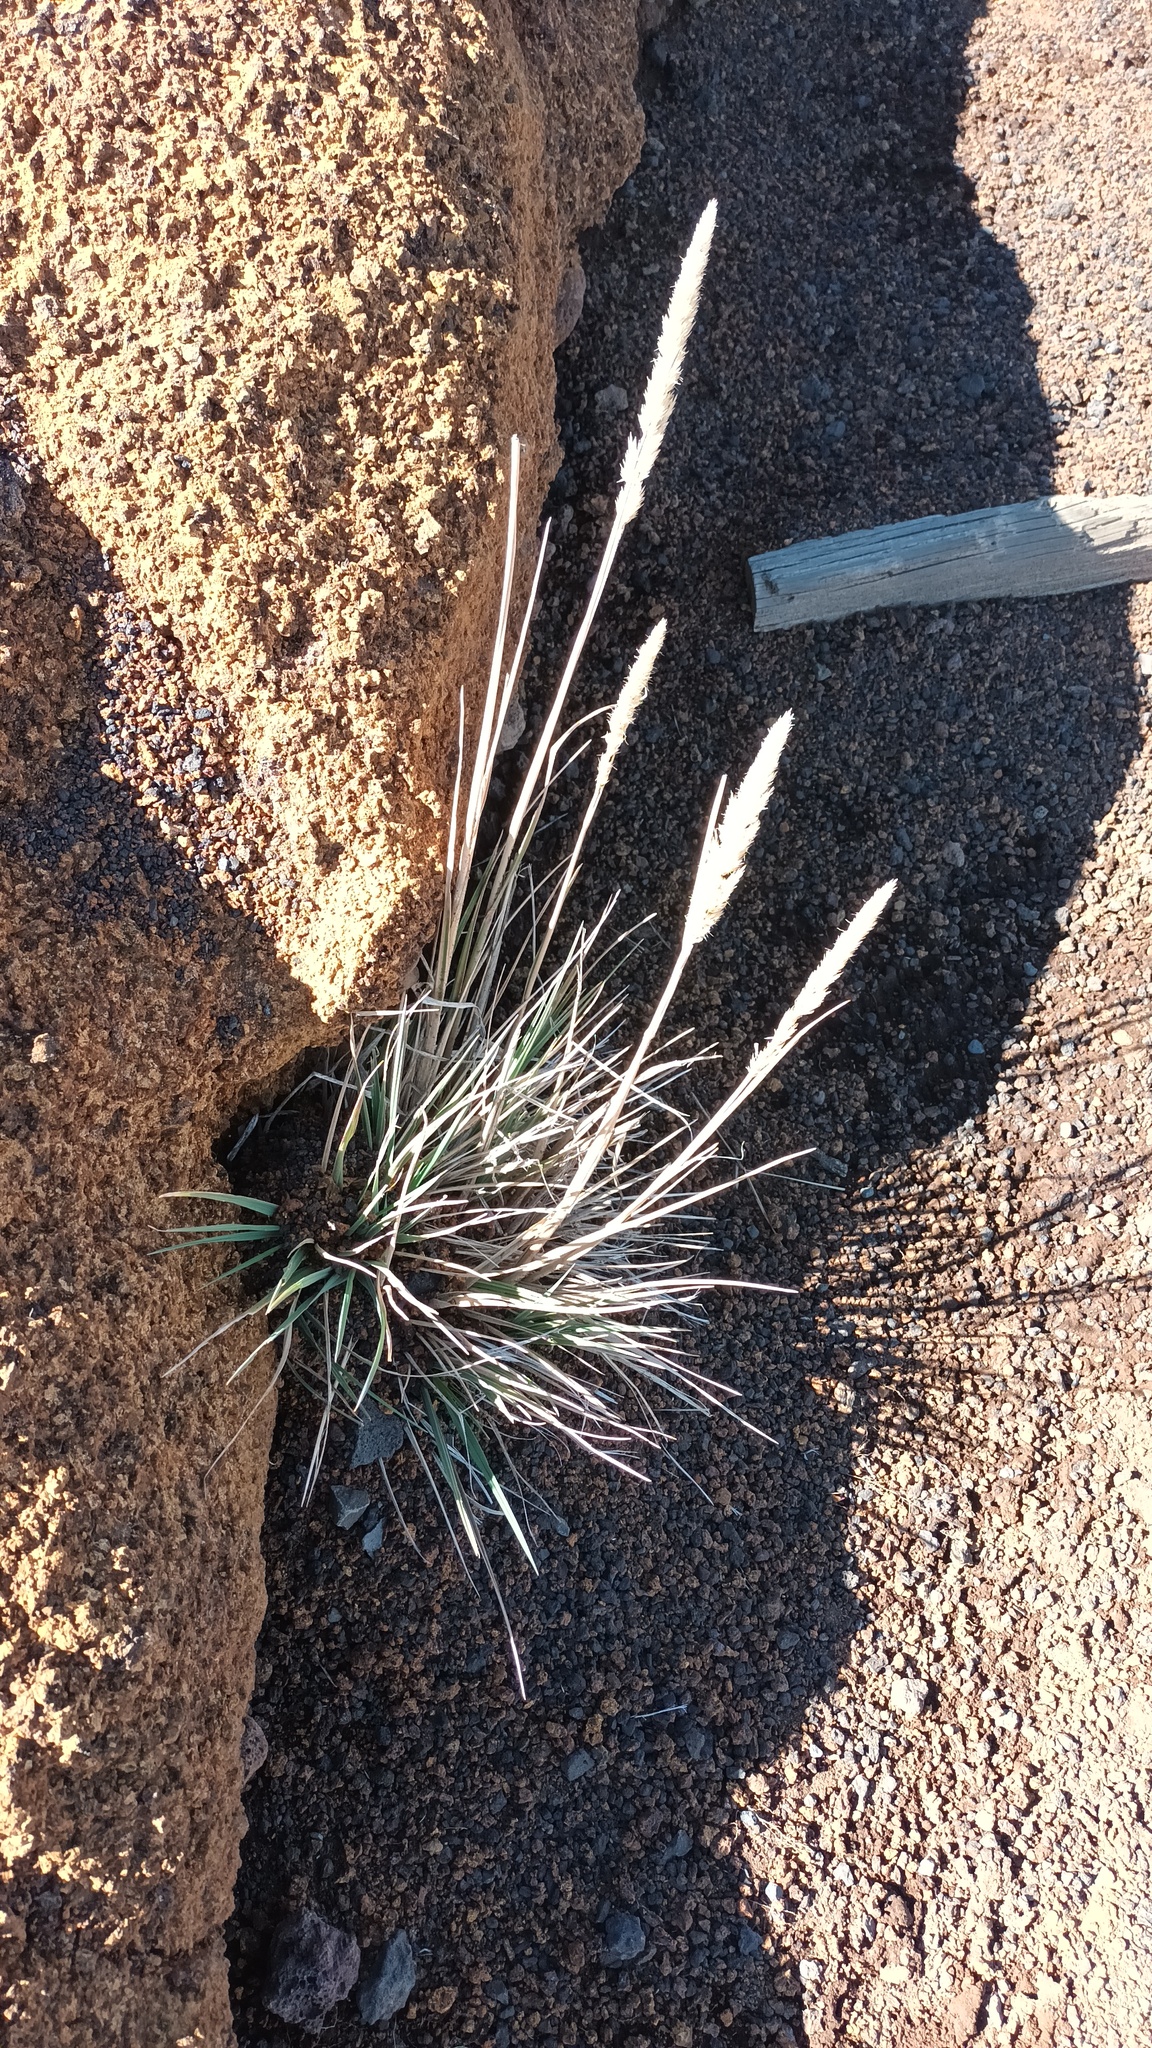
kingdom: Plantae
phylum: Tracheophyta
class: Liliopsida
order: Poales
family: Poaceae
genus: Trisetum
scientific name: Trisetum glomeratum
